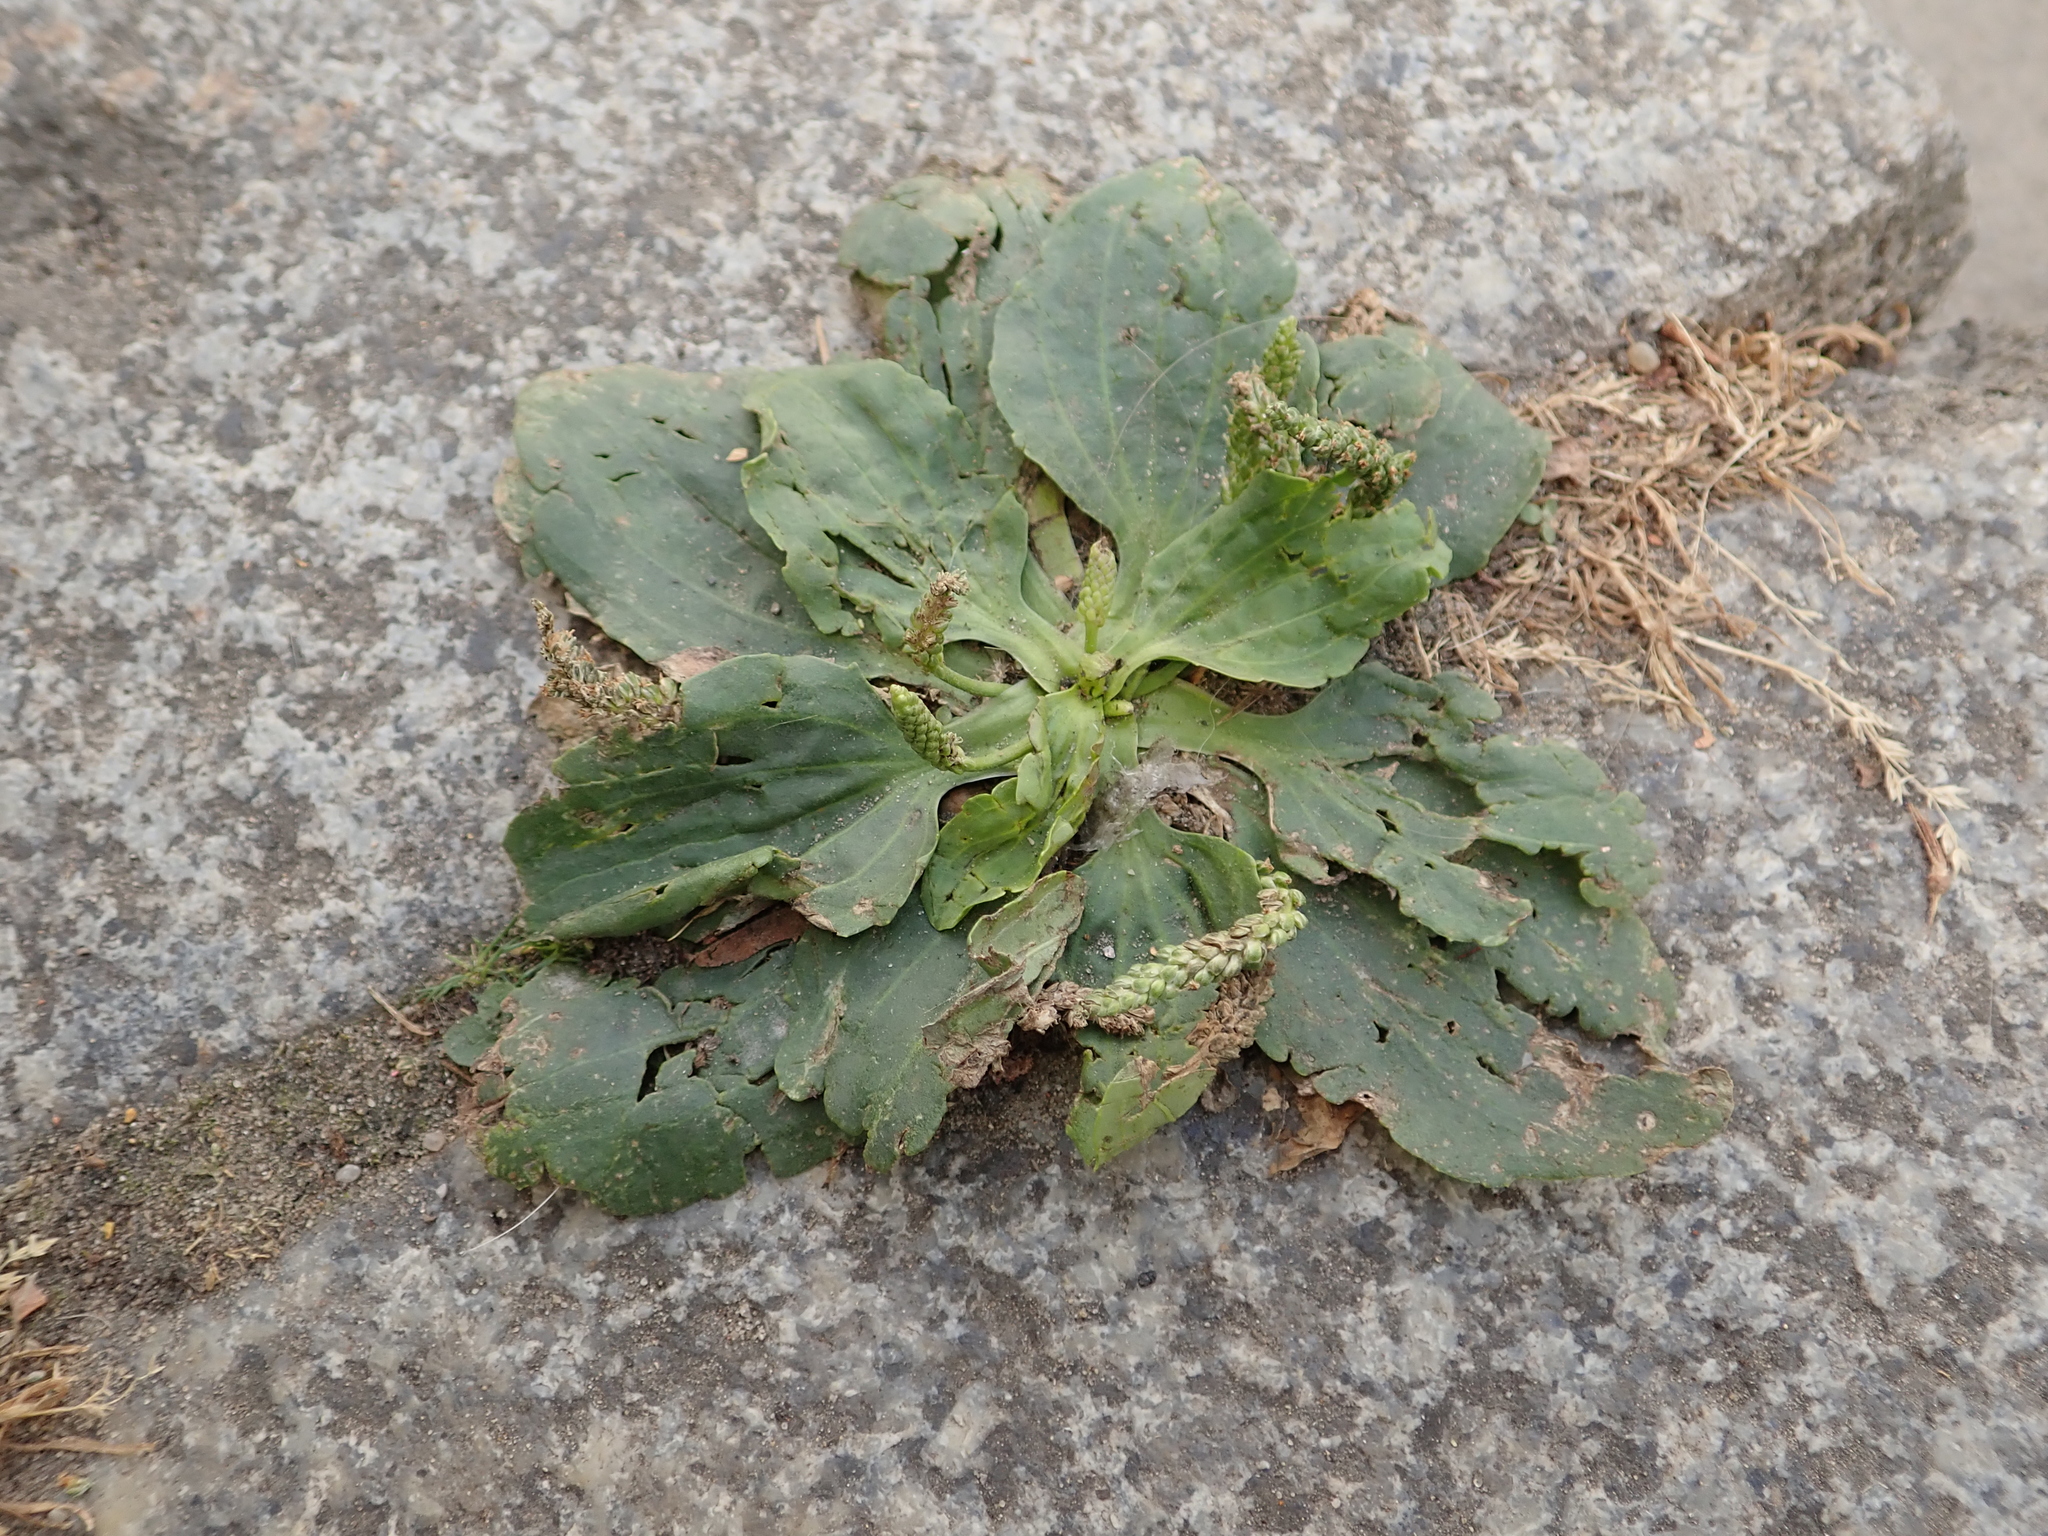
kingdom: Plantae
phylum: Tracheophyta
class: Magnoliopsida
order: Lamiales
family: Plantaginaceae
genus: Plantago
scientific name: Plantago major
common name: Common plantain
